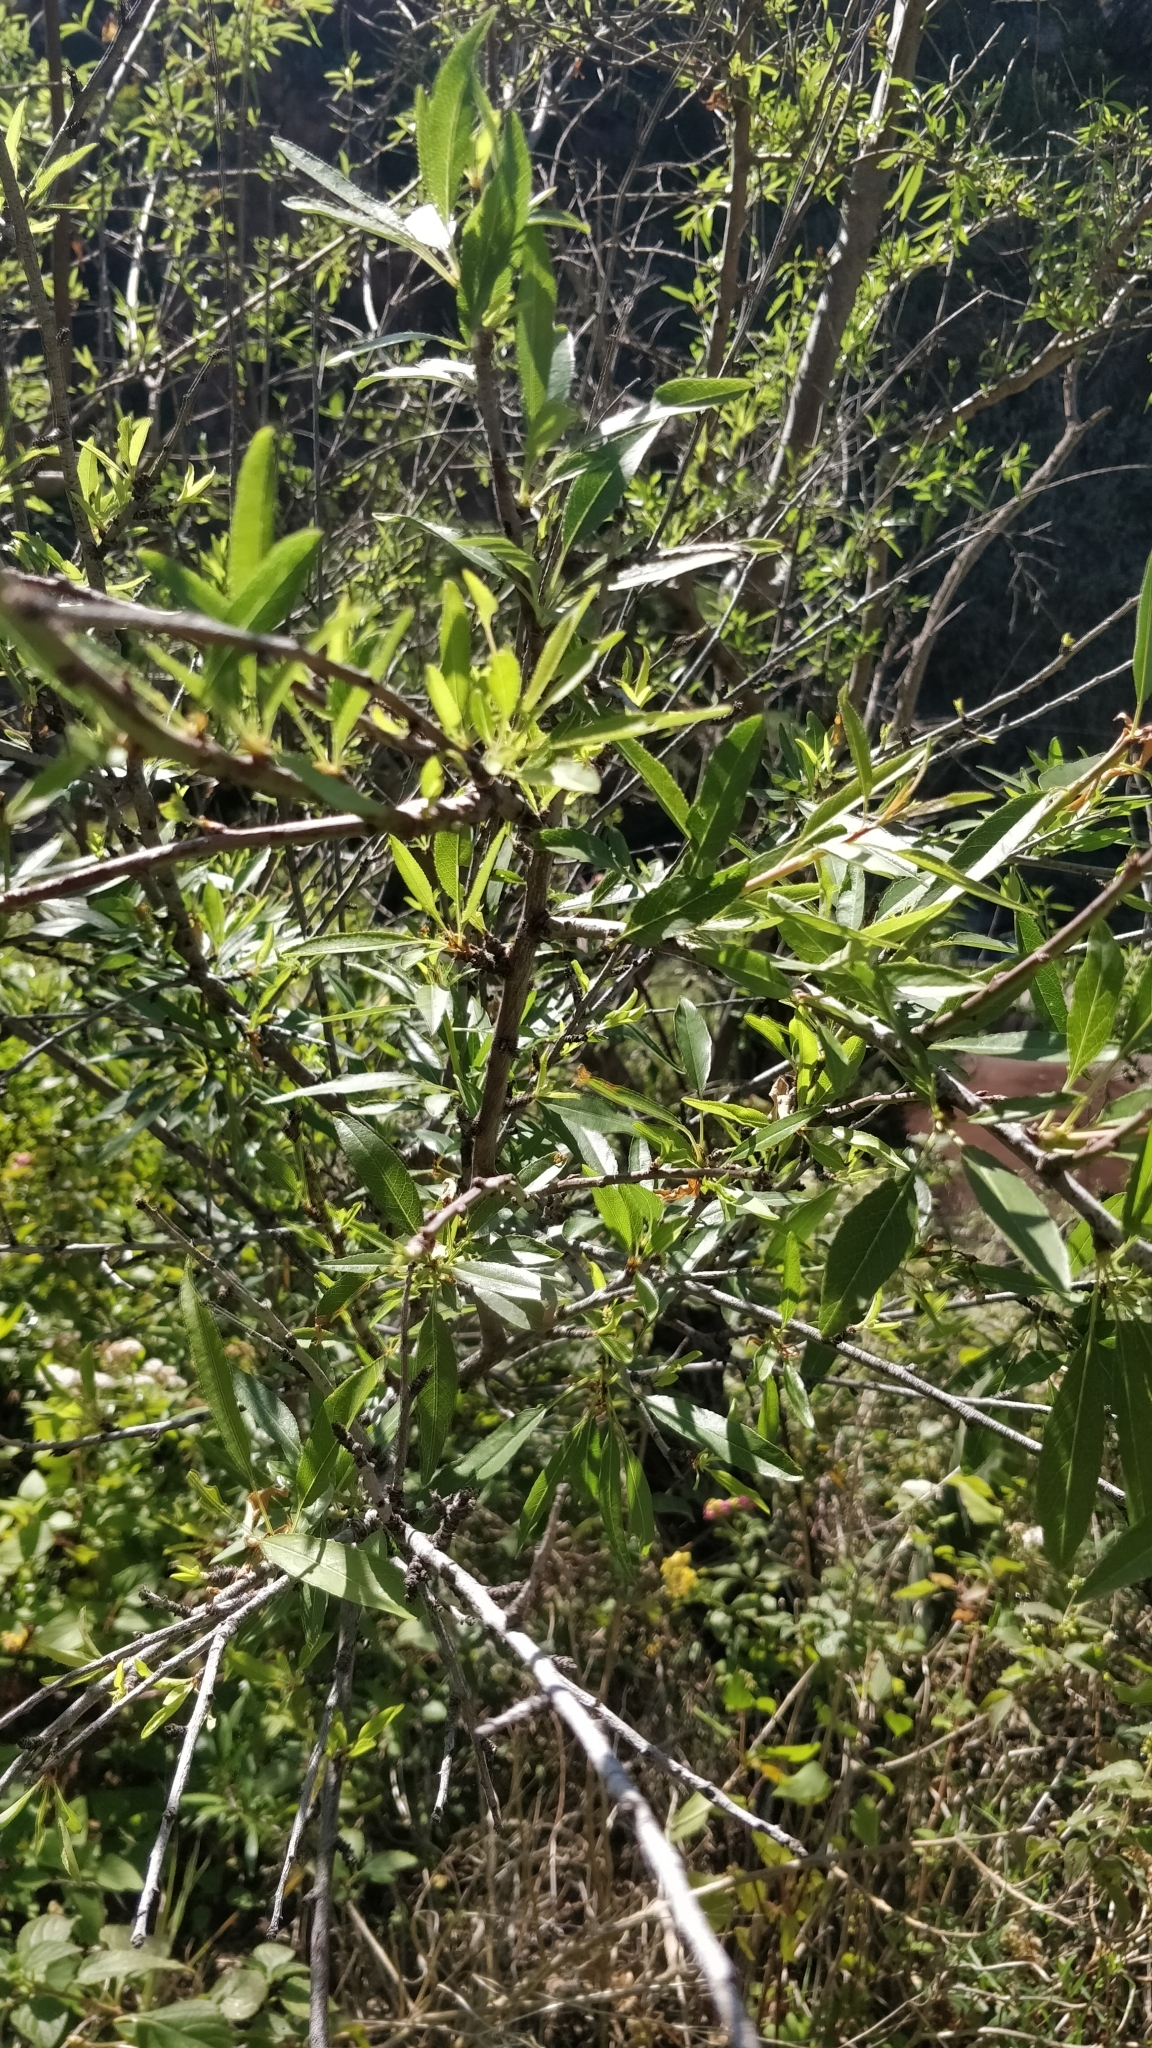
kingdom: Plantae
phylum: Tracheophyta
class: Magnoliopsida
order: Rosales
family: Rosaceae
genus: Prunus
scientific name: Prunus amygdalus
